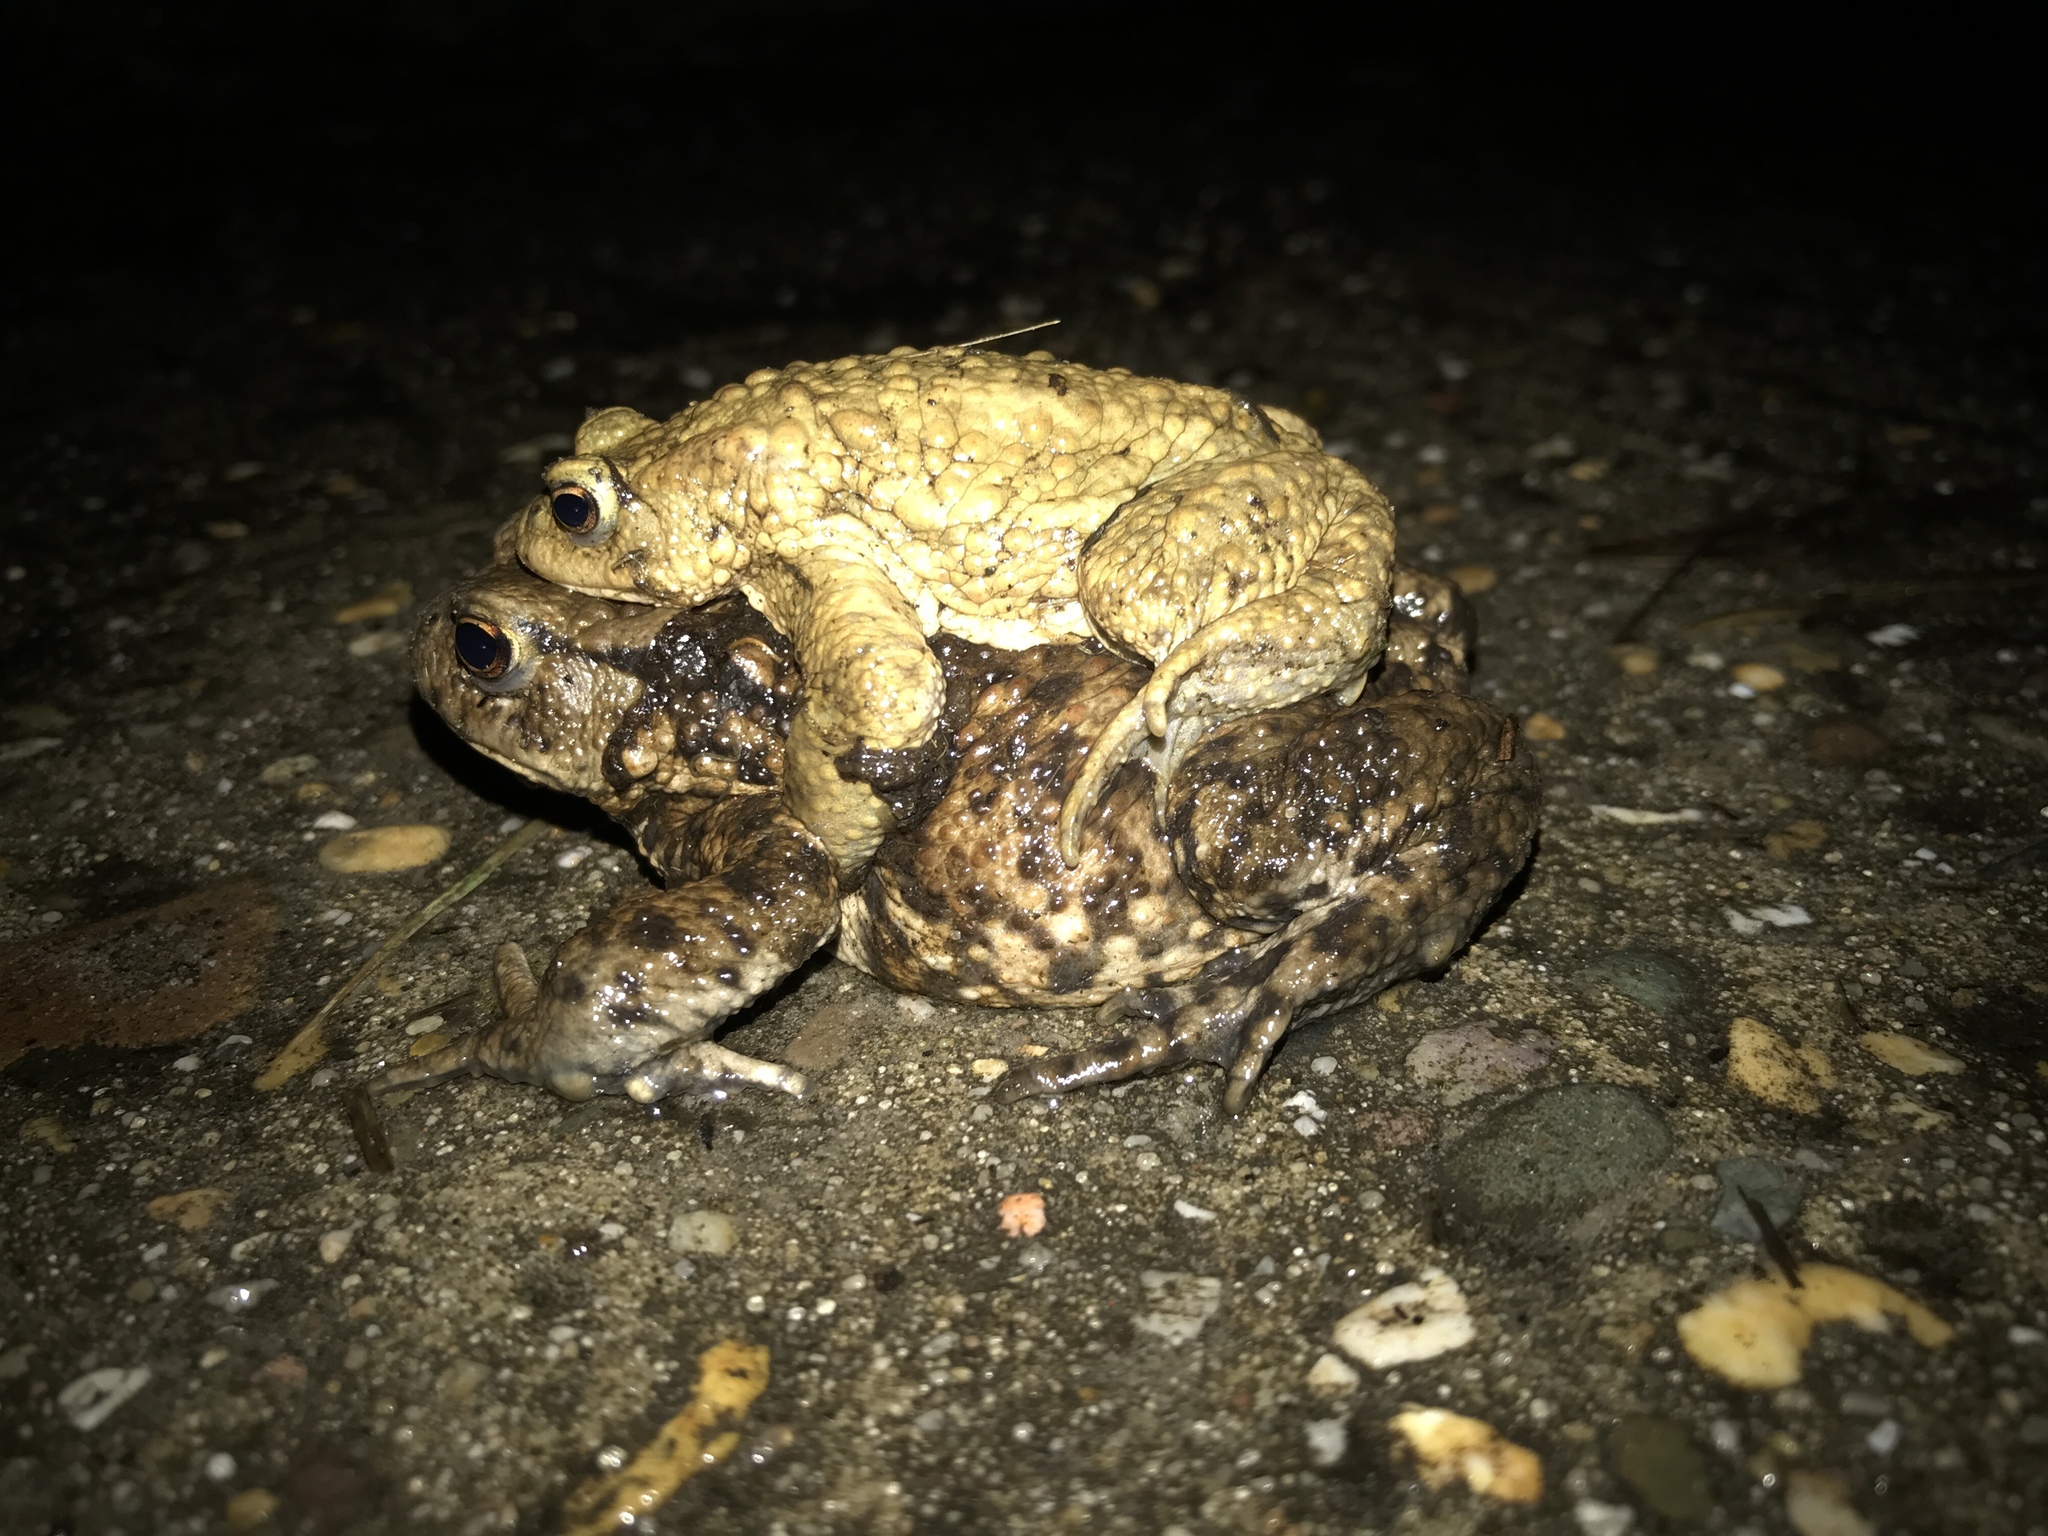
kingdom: Animalia
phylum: Chordata
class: Amphibia
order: Anura
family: Bufonidae
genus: Bufo
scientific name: Bufo bufo
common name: Common toad
